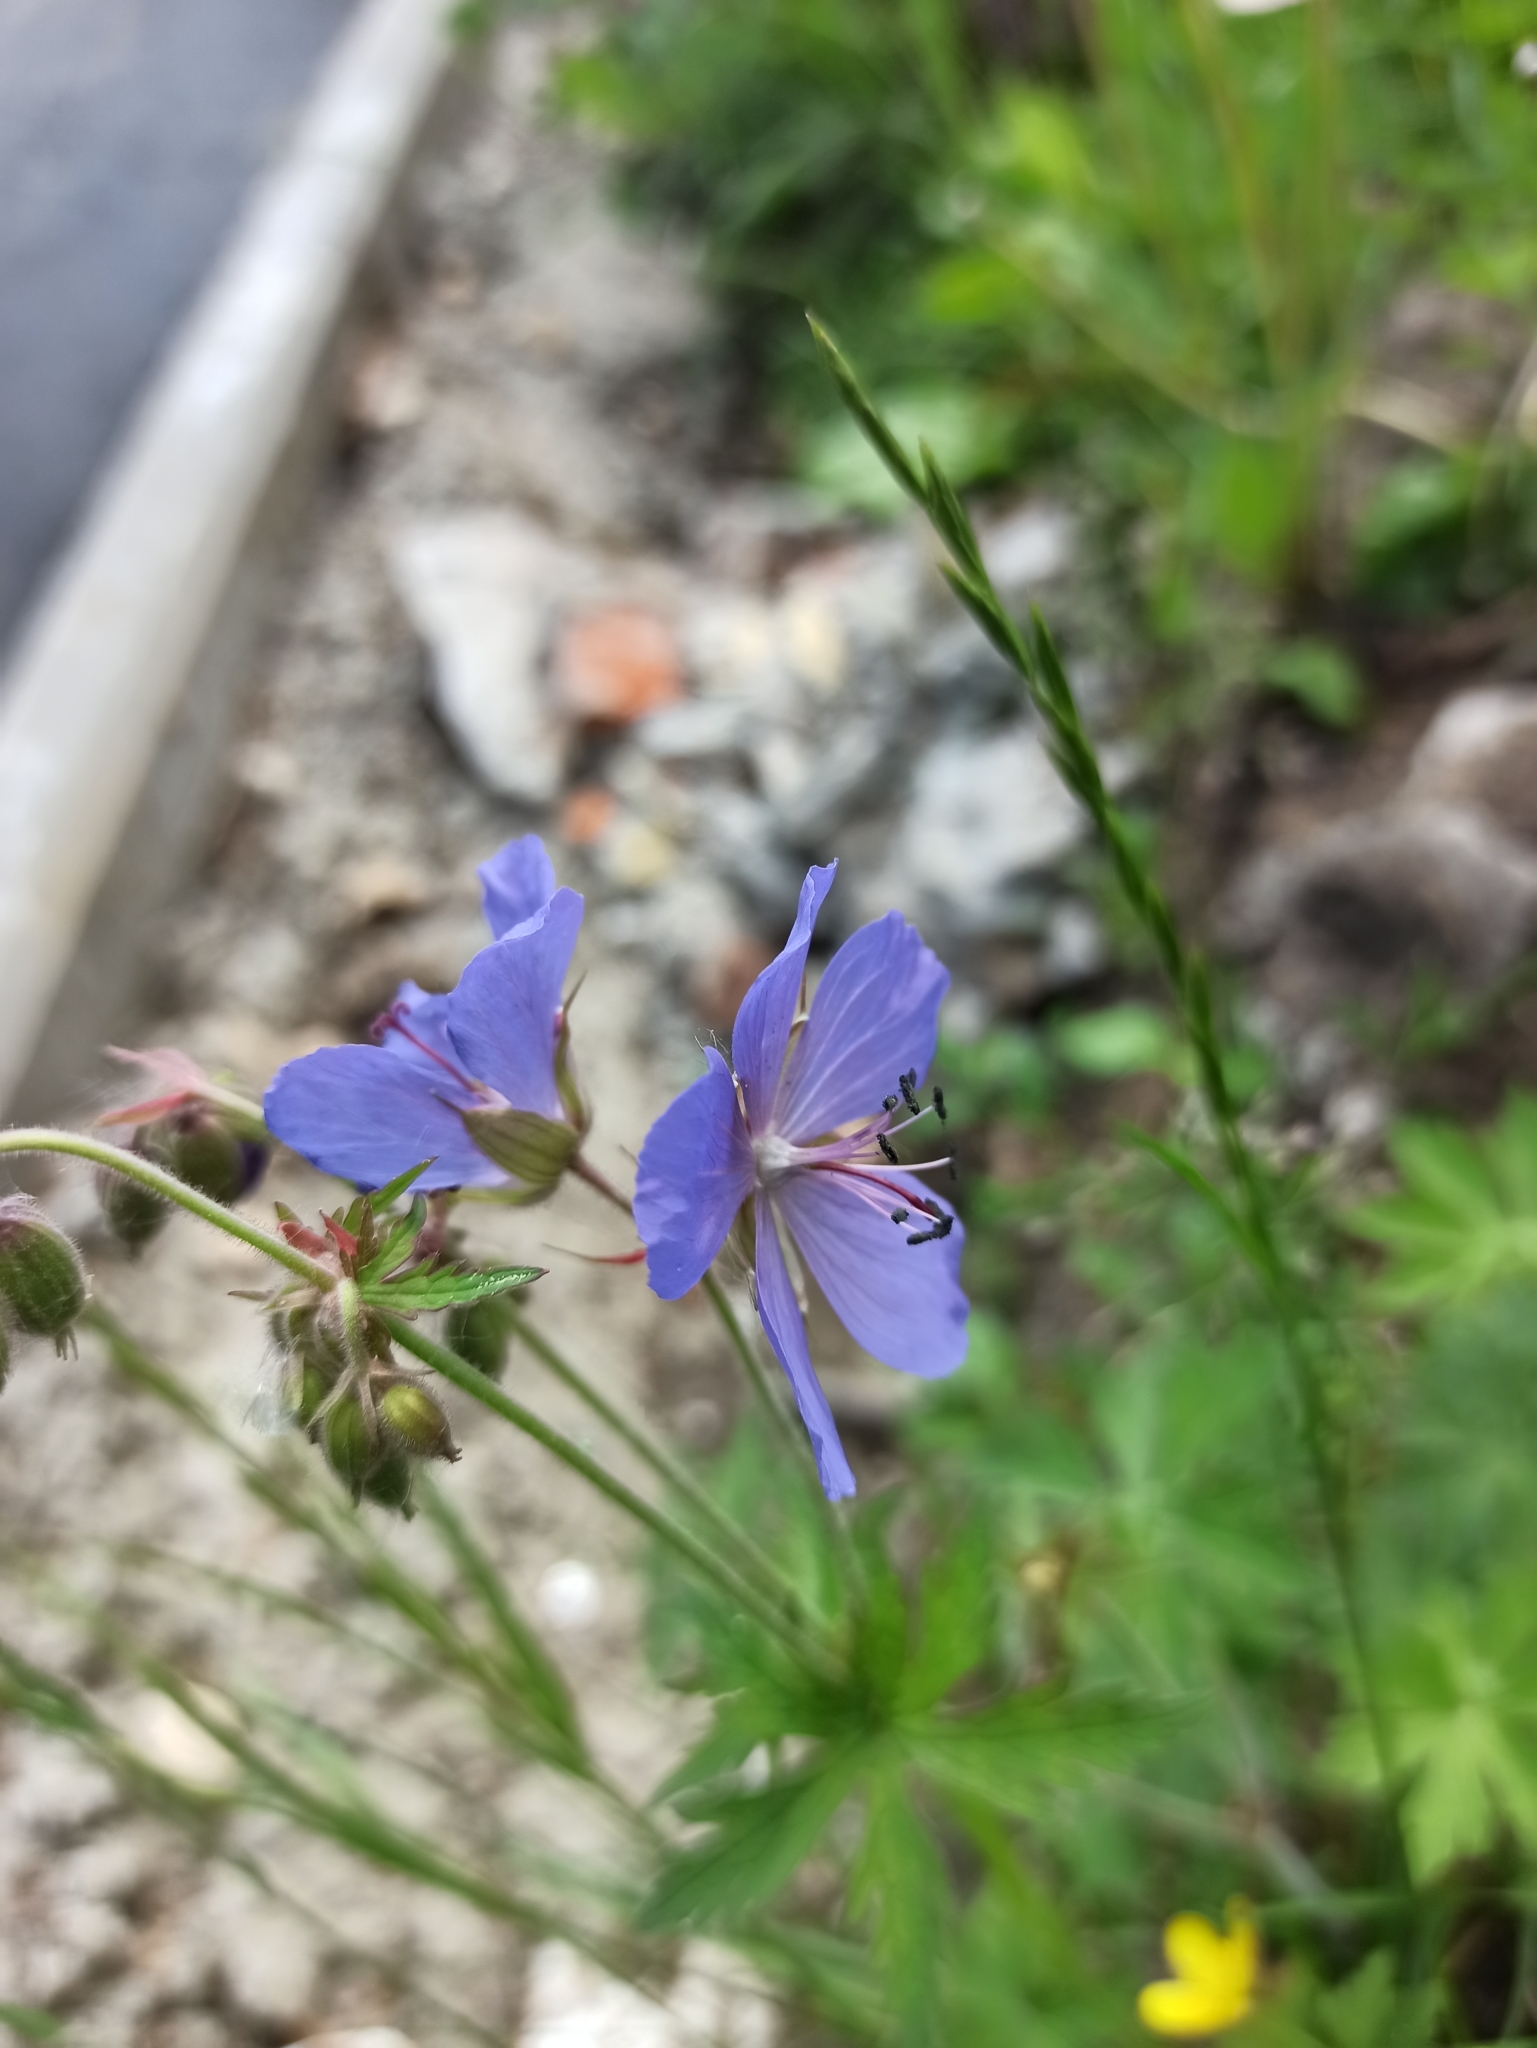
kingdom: Plantae
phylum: Tracheophyta
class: Magnoliopsida
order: Geraniales
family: Geraniaceae
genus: Geranium
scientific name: Geranium pratense
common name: Meadow crane's-bill
